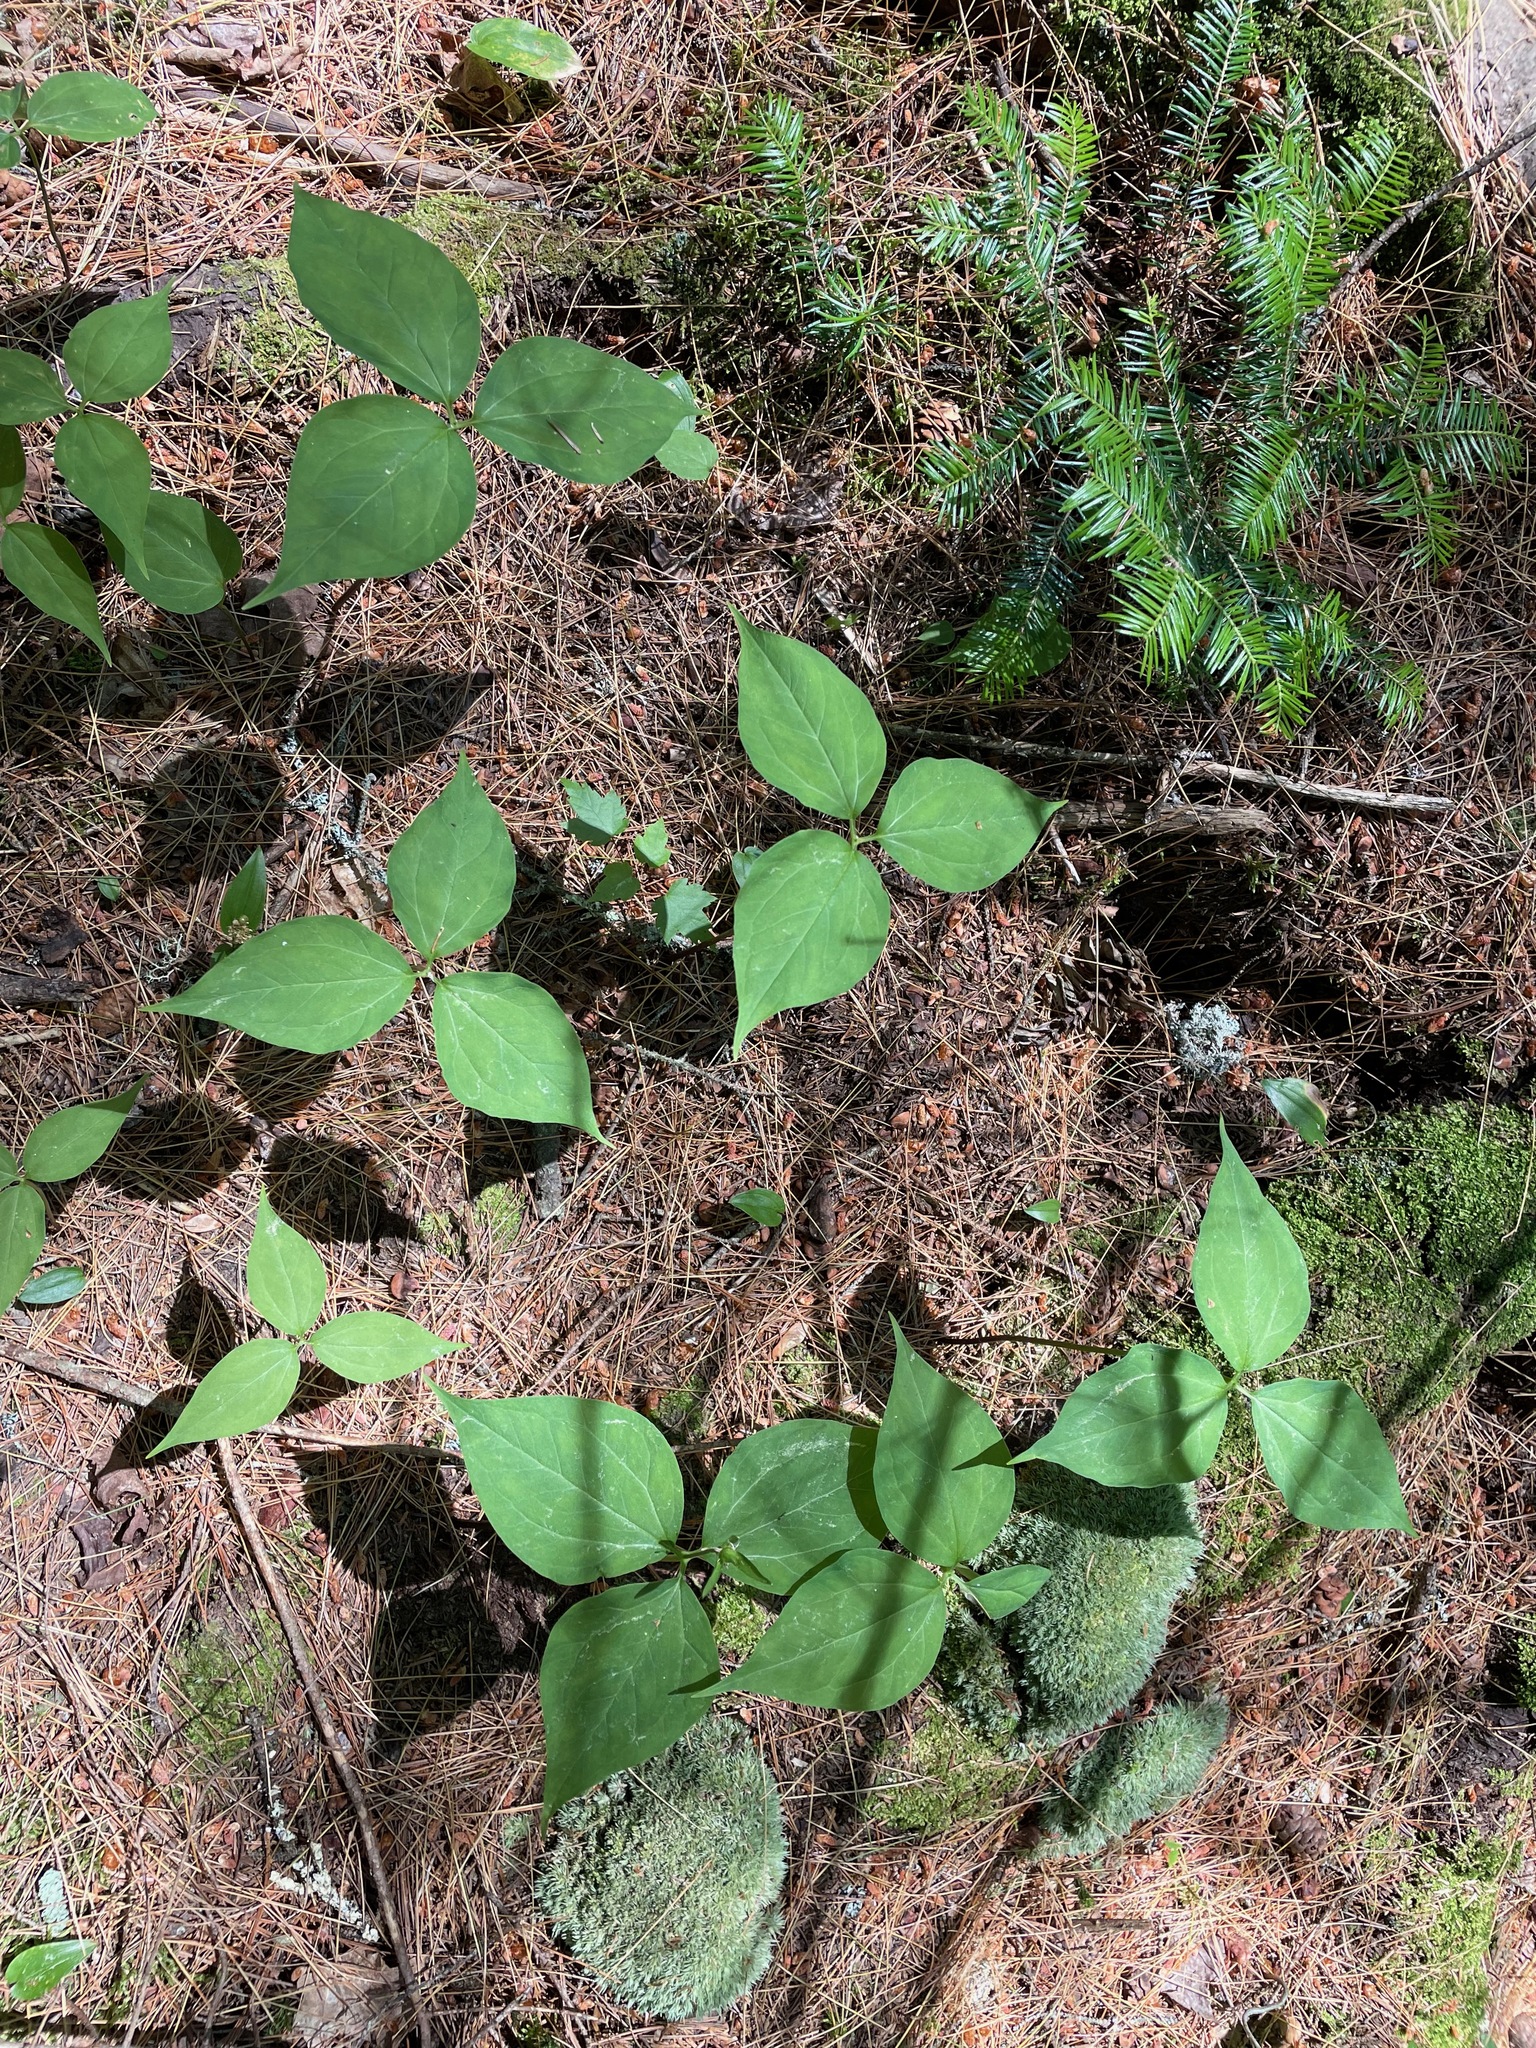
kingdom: Plantae
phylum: Tracheophyta
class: Liliopsida
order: Liliales
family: Melanthiaceae
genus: Trillium
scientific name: Trillium undulatum
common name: Paint trillium
